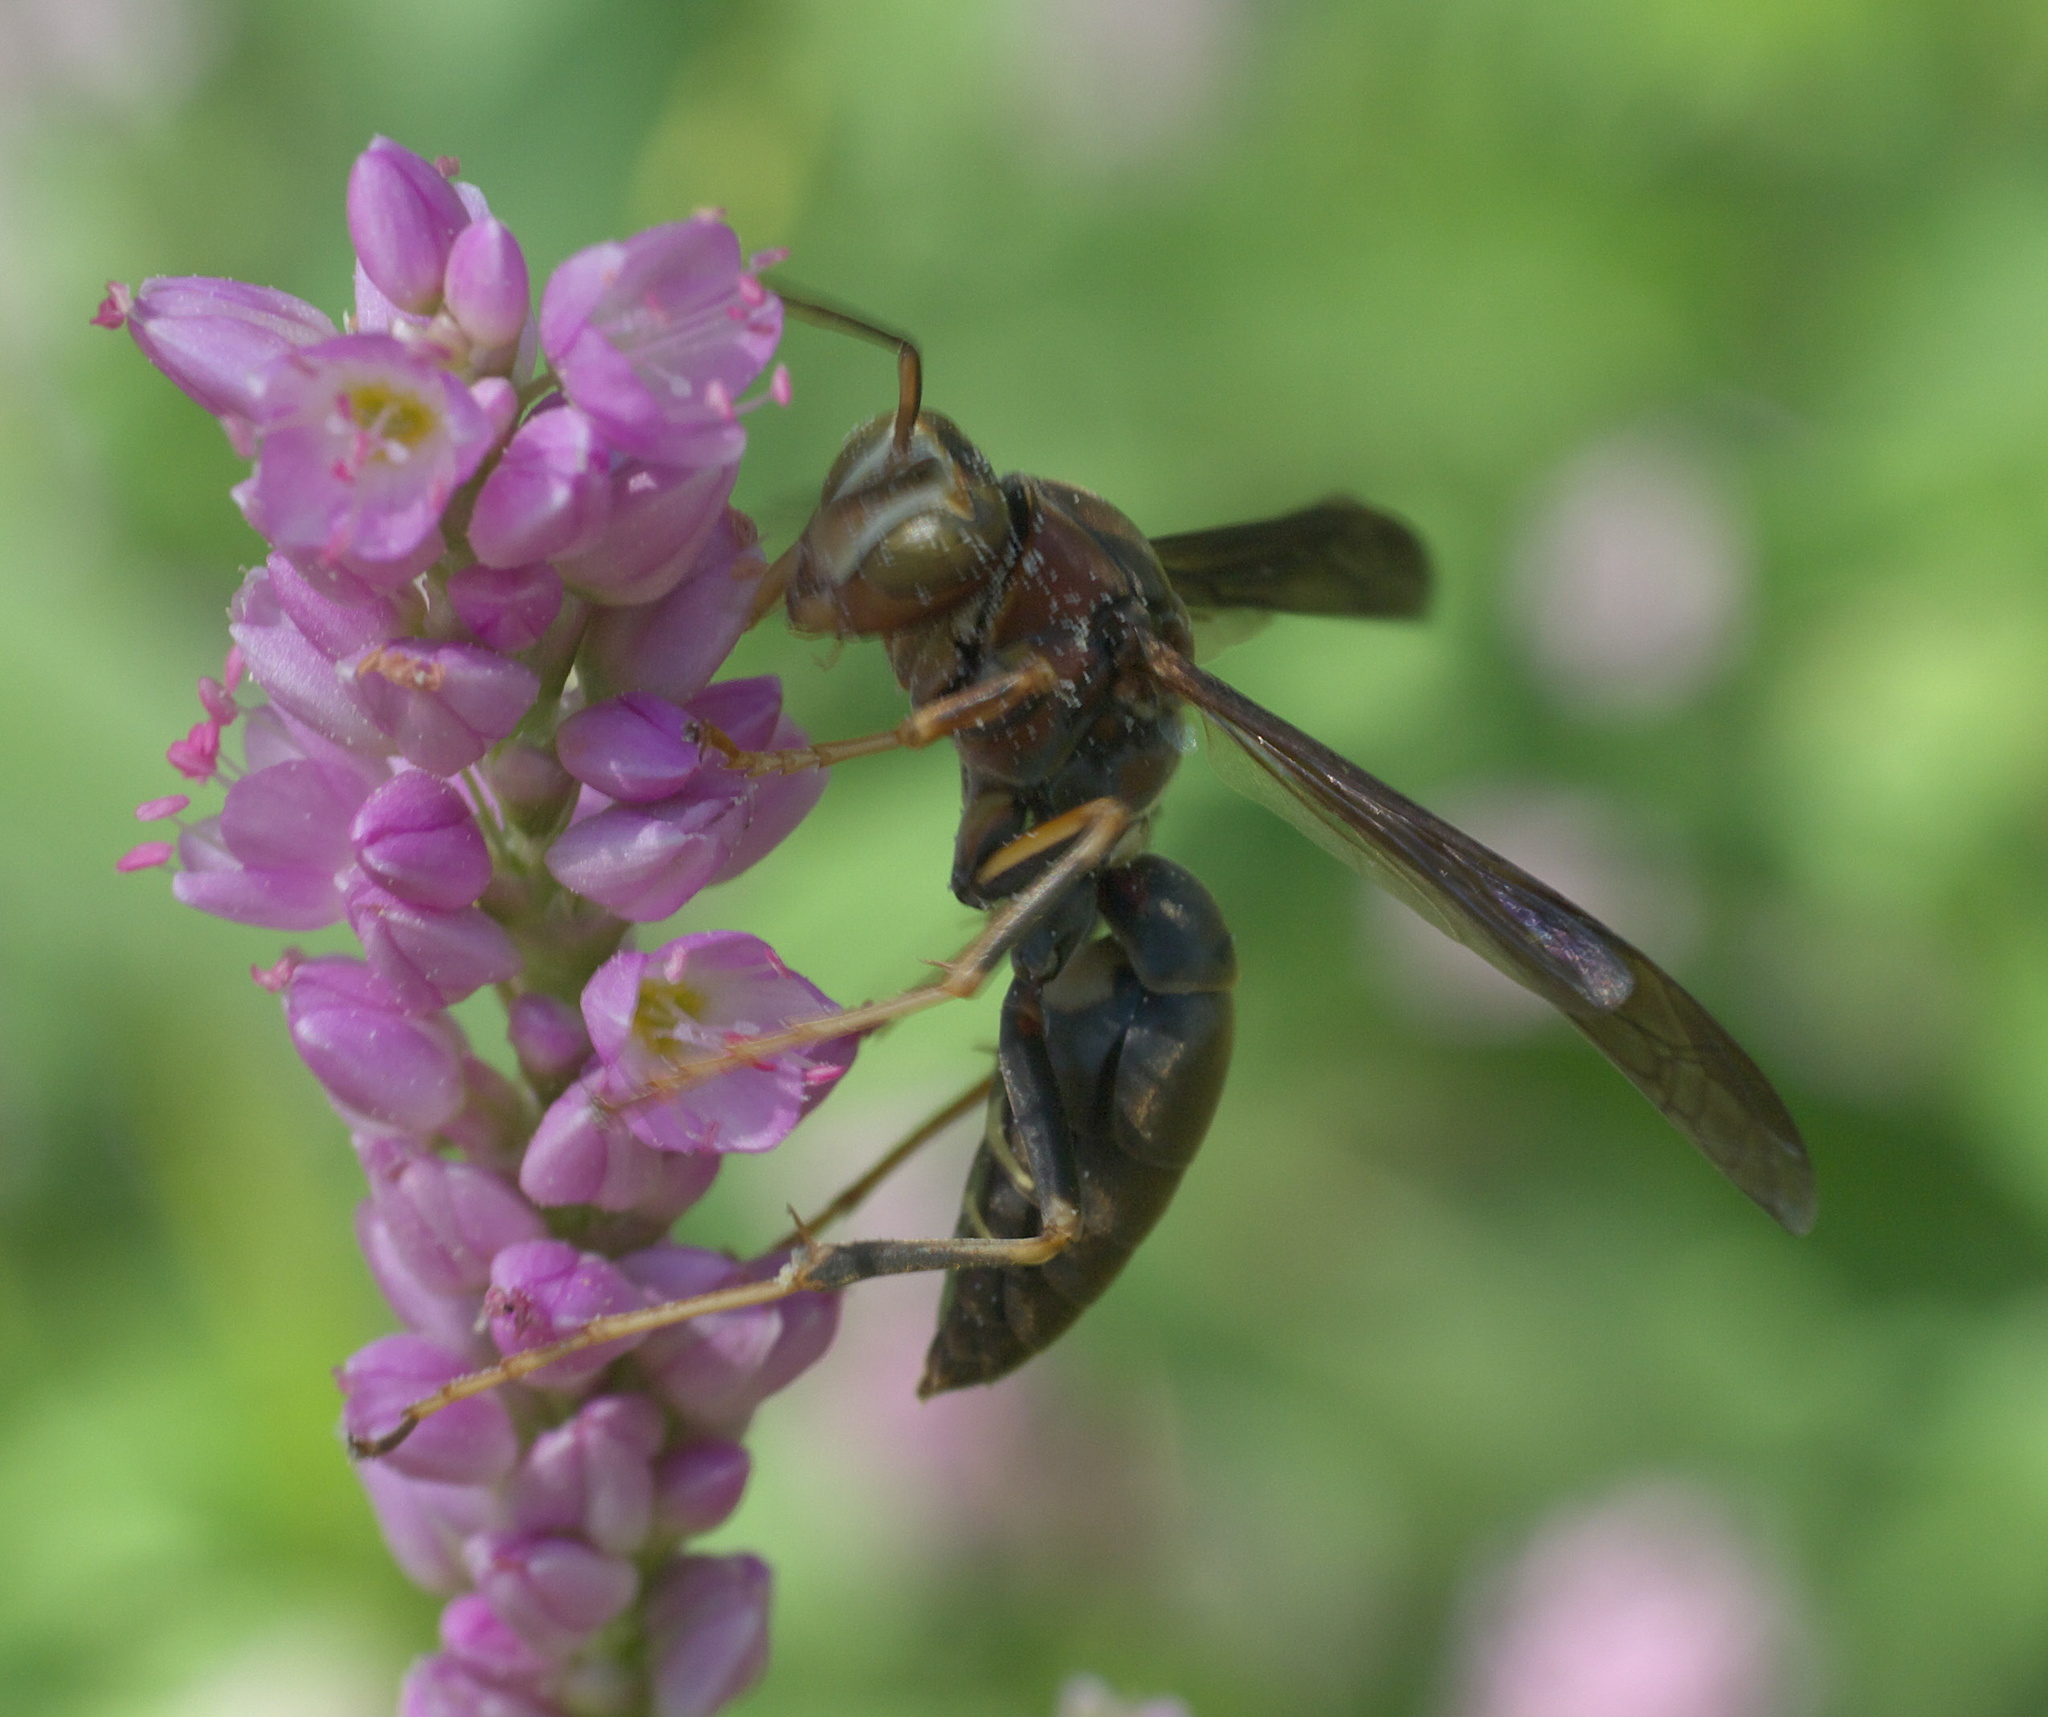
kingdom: Animalia
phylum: Arthropoda
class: Insecta
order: Hymenoptera
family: Eumenidae
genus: Polistes
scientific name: Polistes metricus
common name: Metric paper wasp
